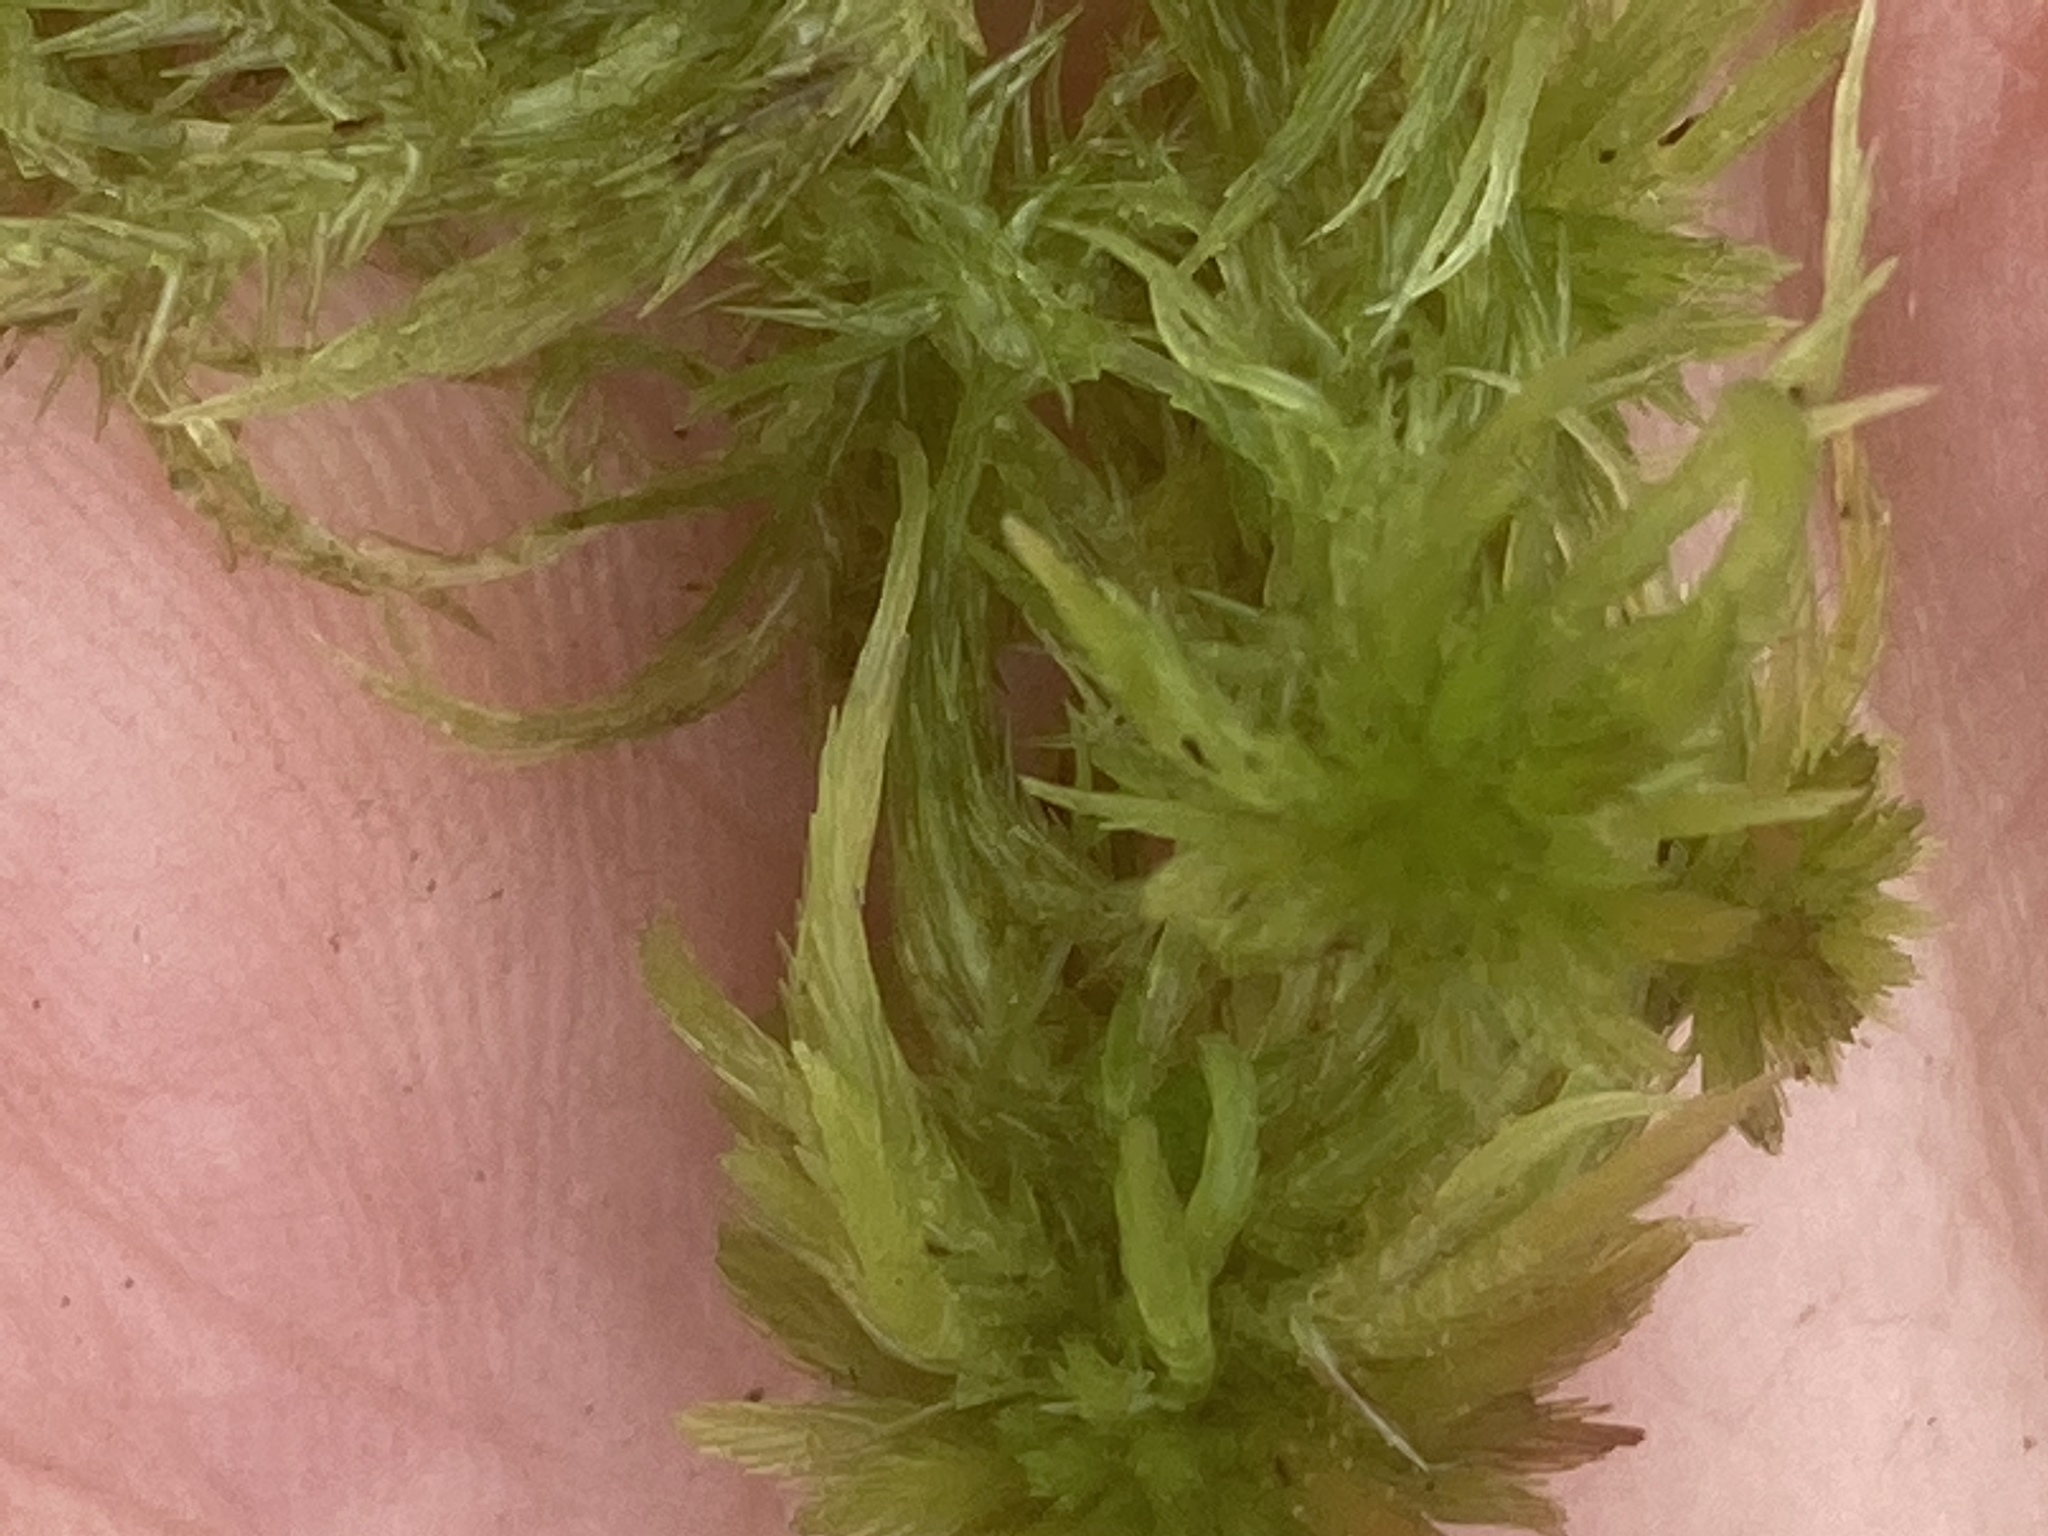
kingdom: Plantae
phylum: Bryophyta
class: Sphagnopsida
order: Sphagnales
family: Sphagnaceae
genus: Sphagnum
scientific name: Sphagnum fimbriatum
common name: Fringed peat moss
